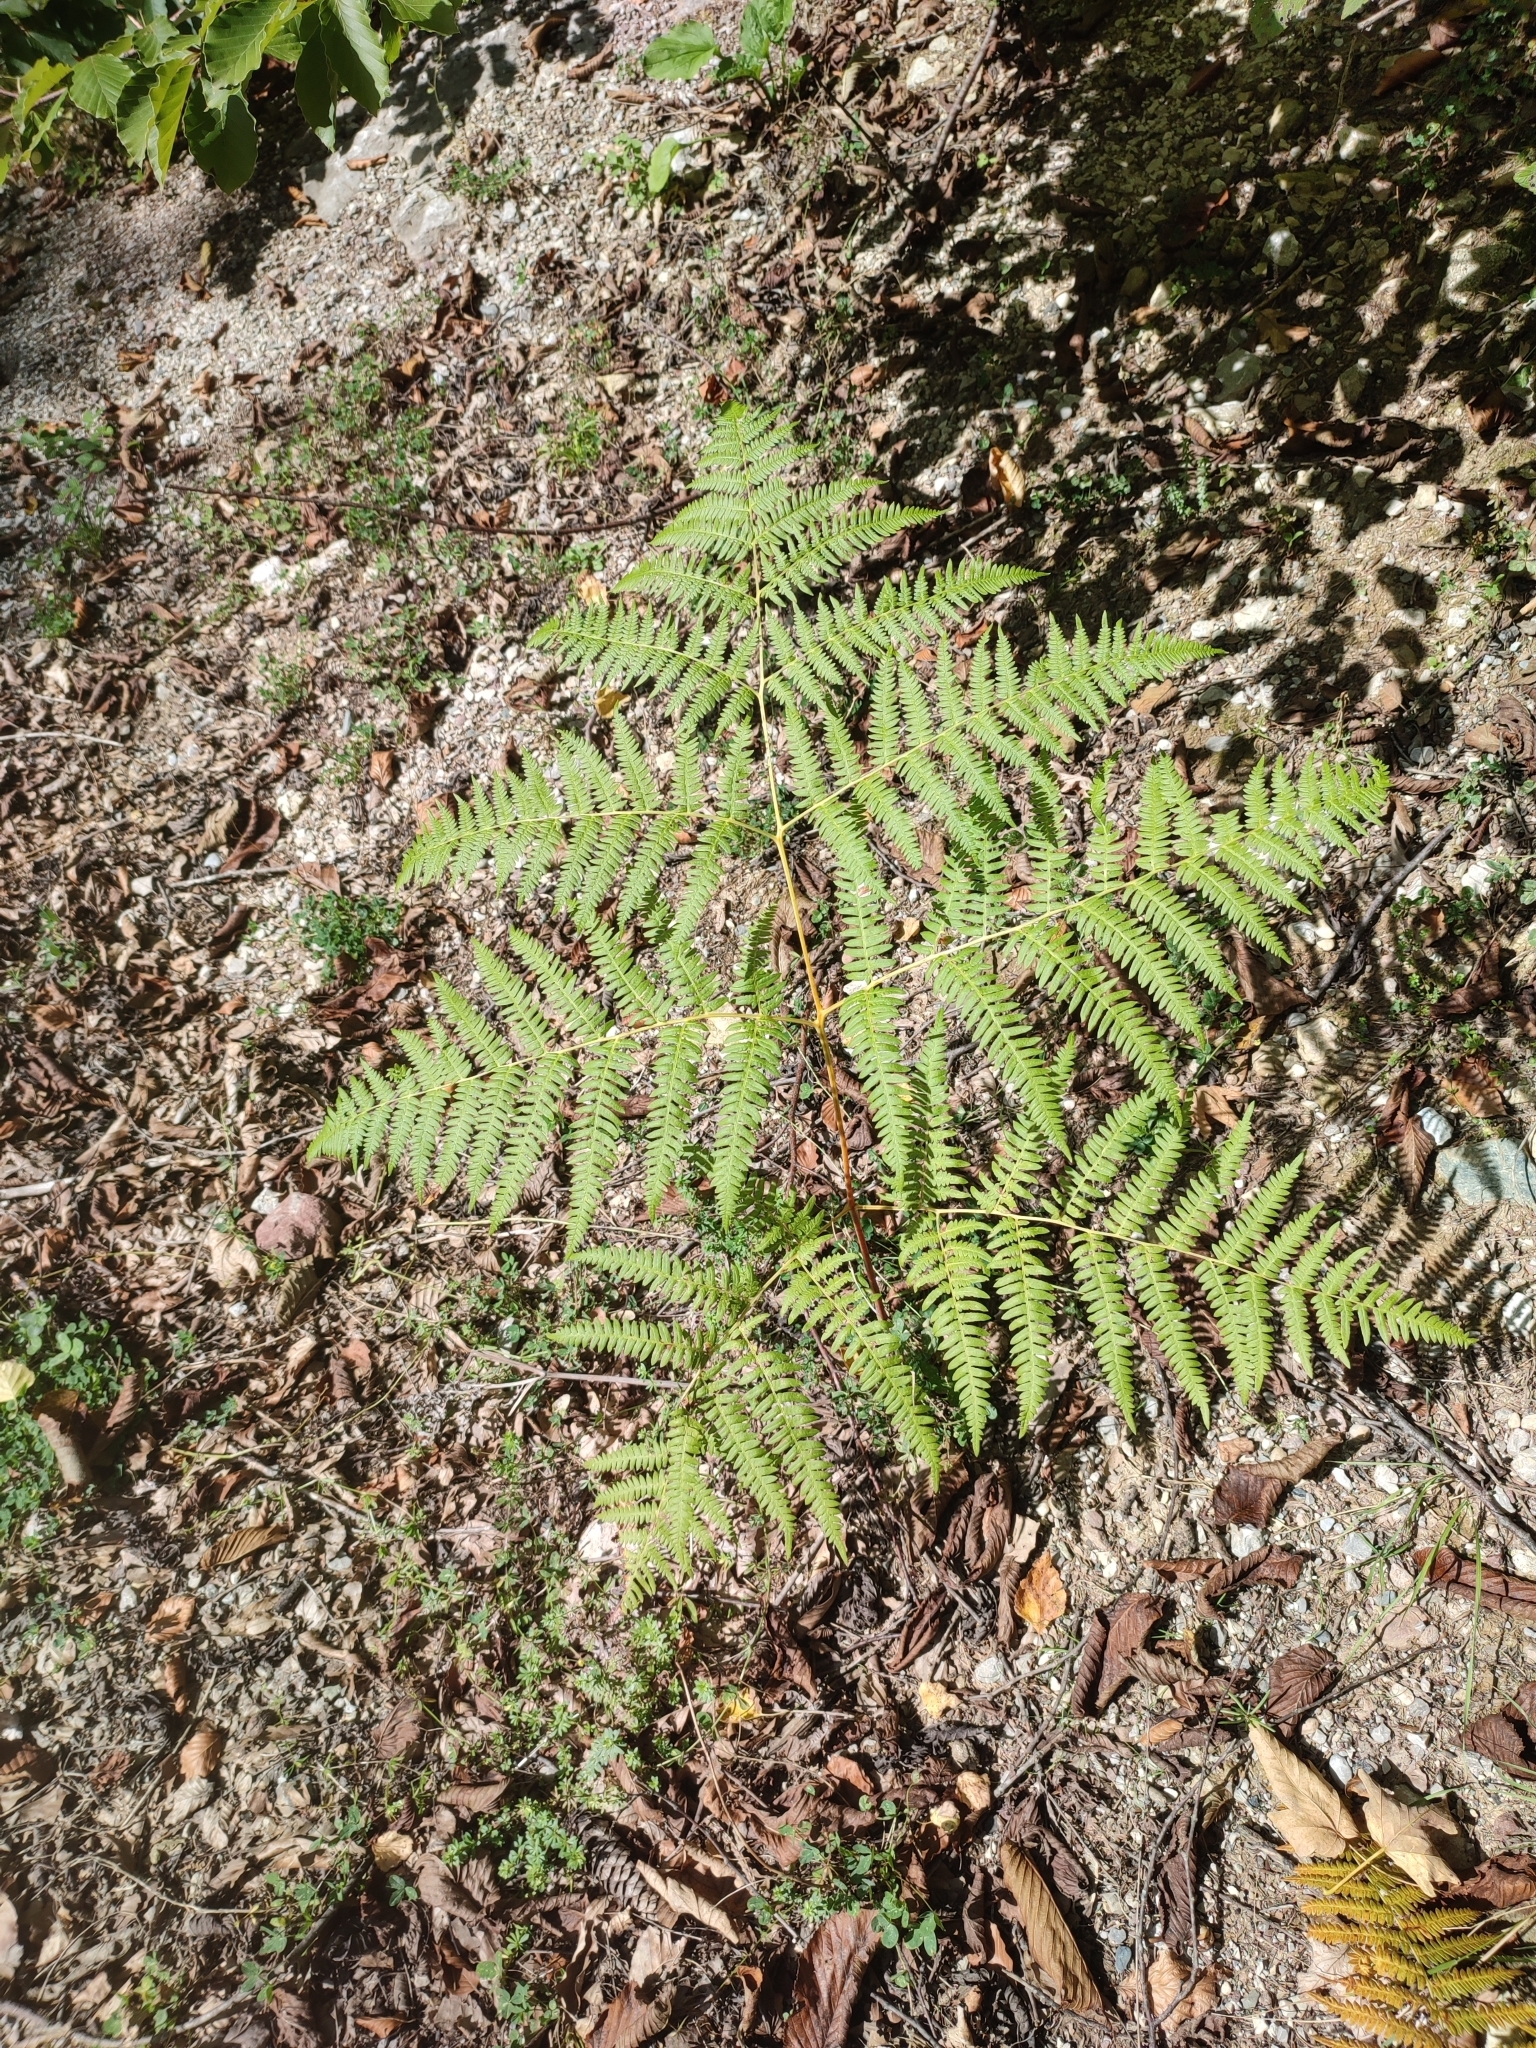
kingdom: Plantae
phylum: Tracheophyta
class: Polypodiopsida
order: Polypodiales
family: Dennstaedtiaceae
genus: Pteridium
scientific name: Pteridium aquilinum
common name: Bracken
